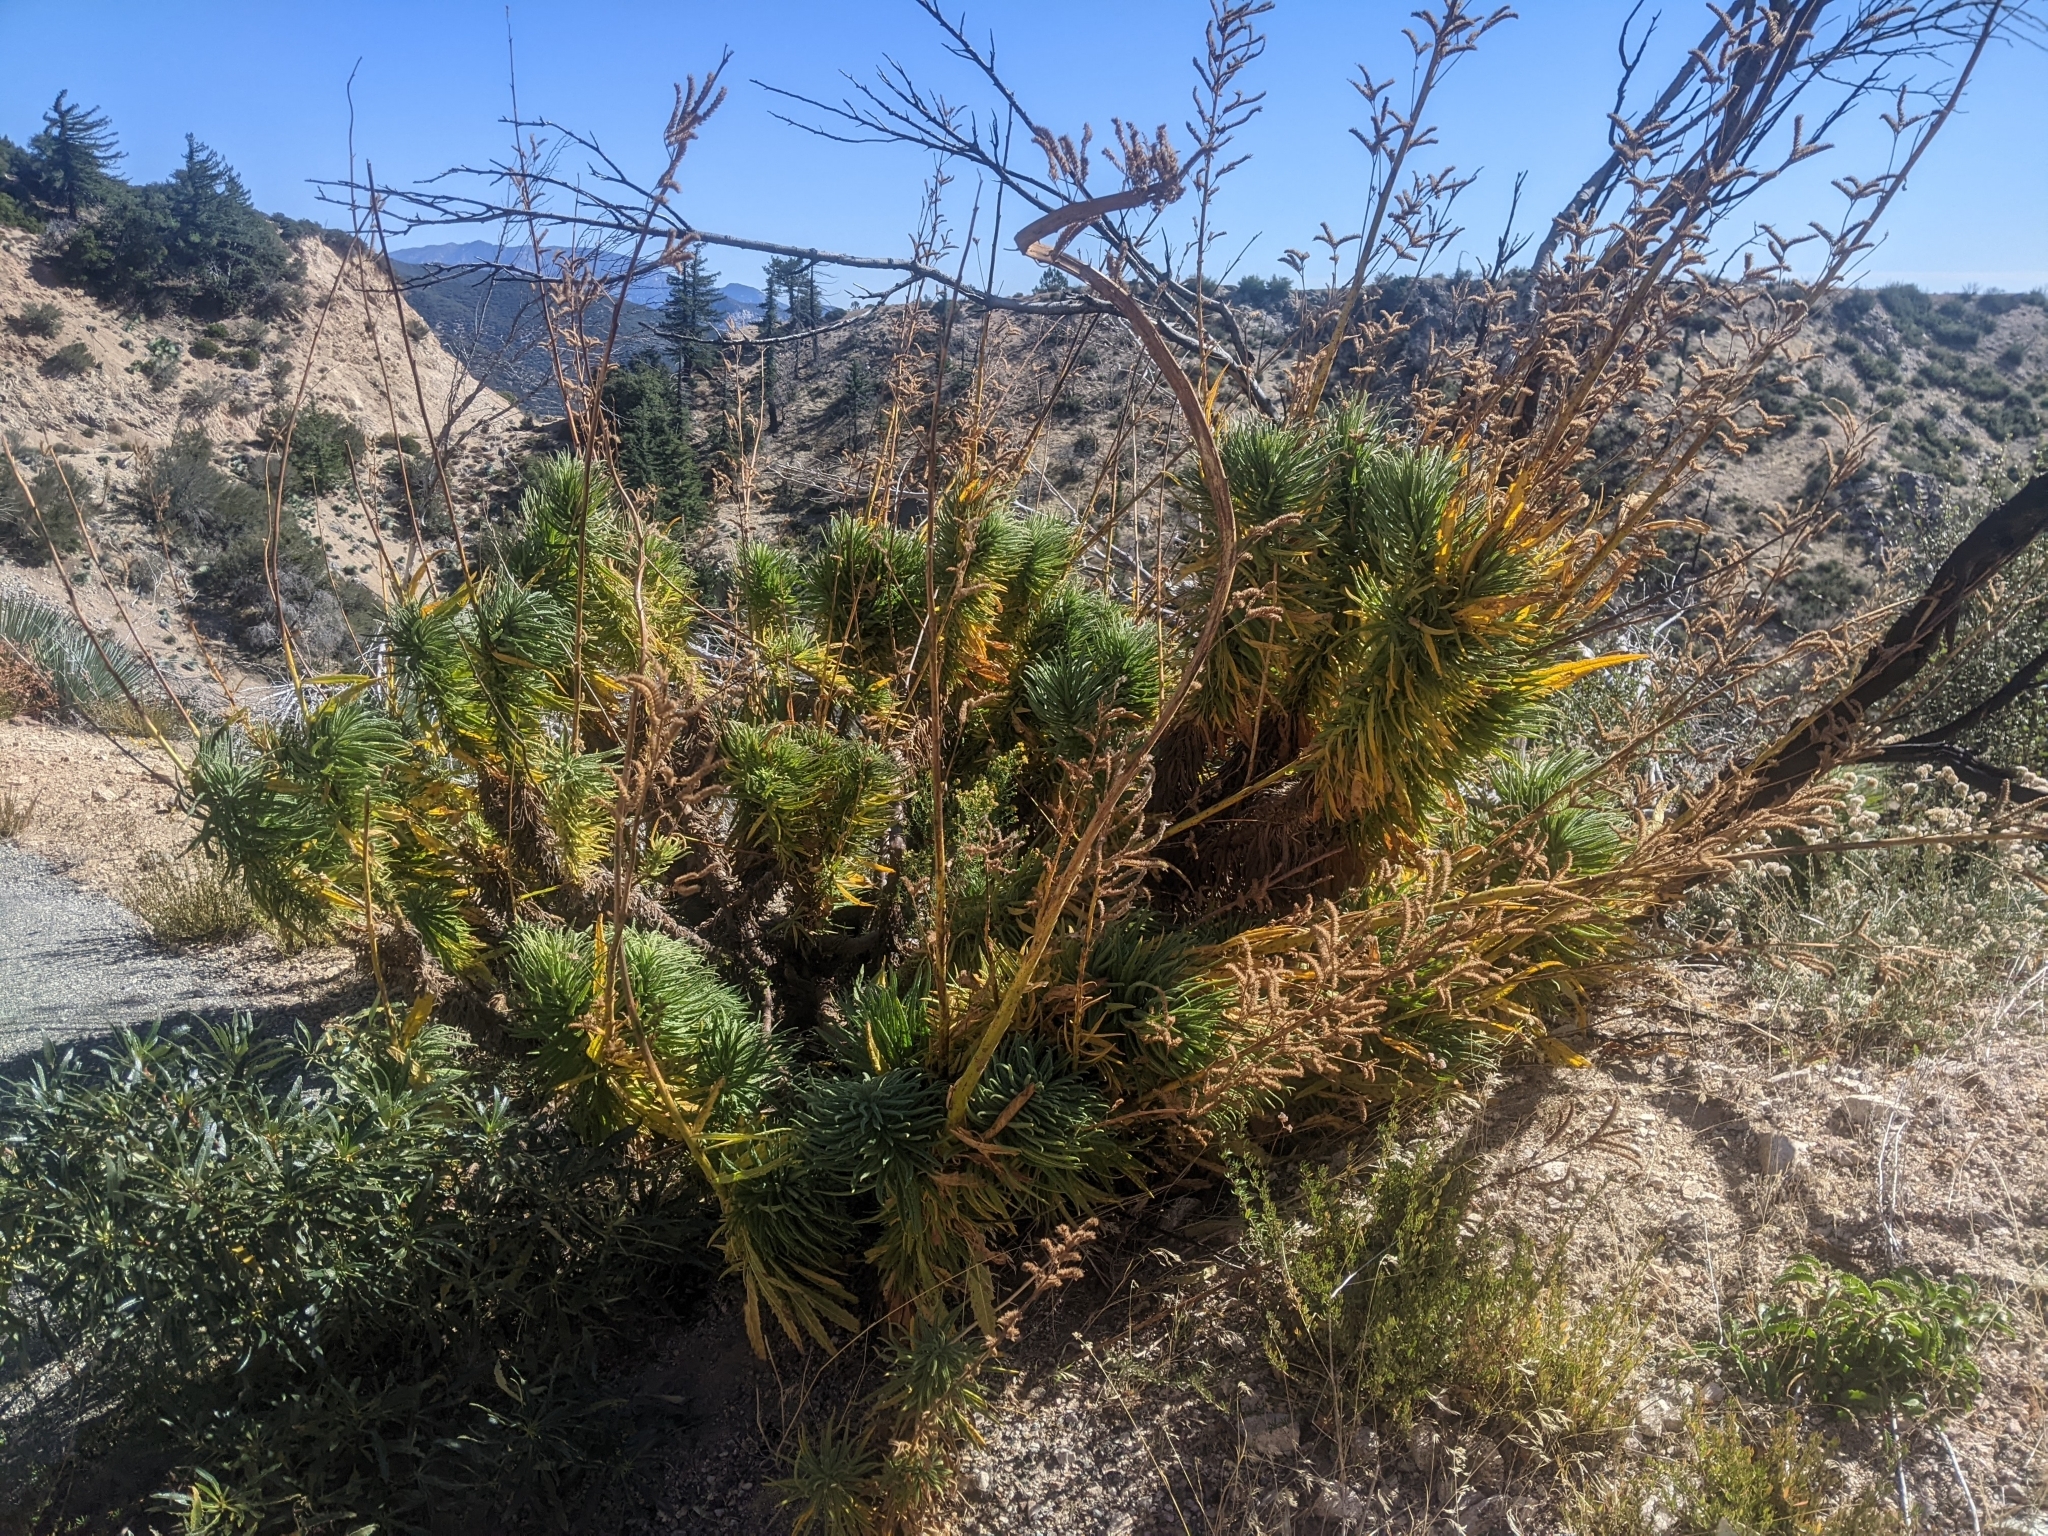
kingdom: Plantae
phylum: Tracheophyta
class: Magnoliopsida
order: Boraginales
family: Namaceae
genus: Turricula
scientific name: Turricula parryi
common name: Poodle-dog-bush
